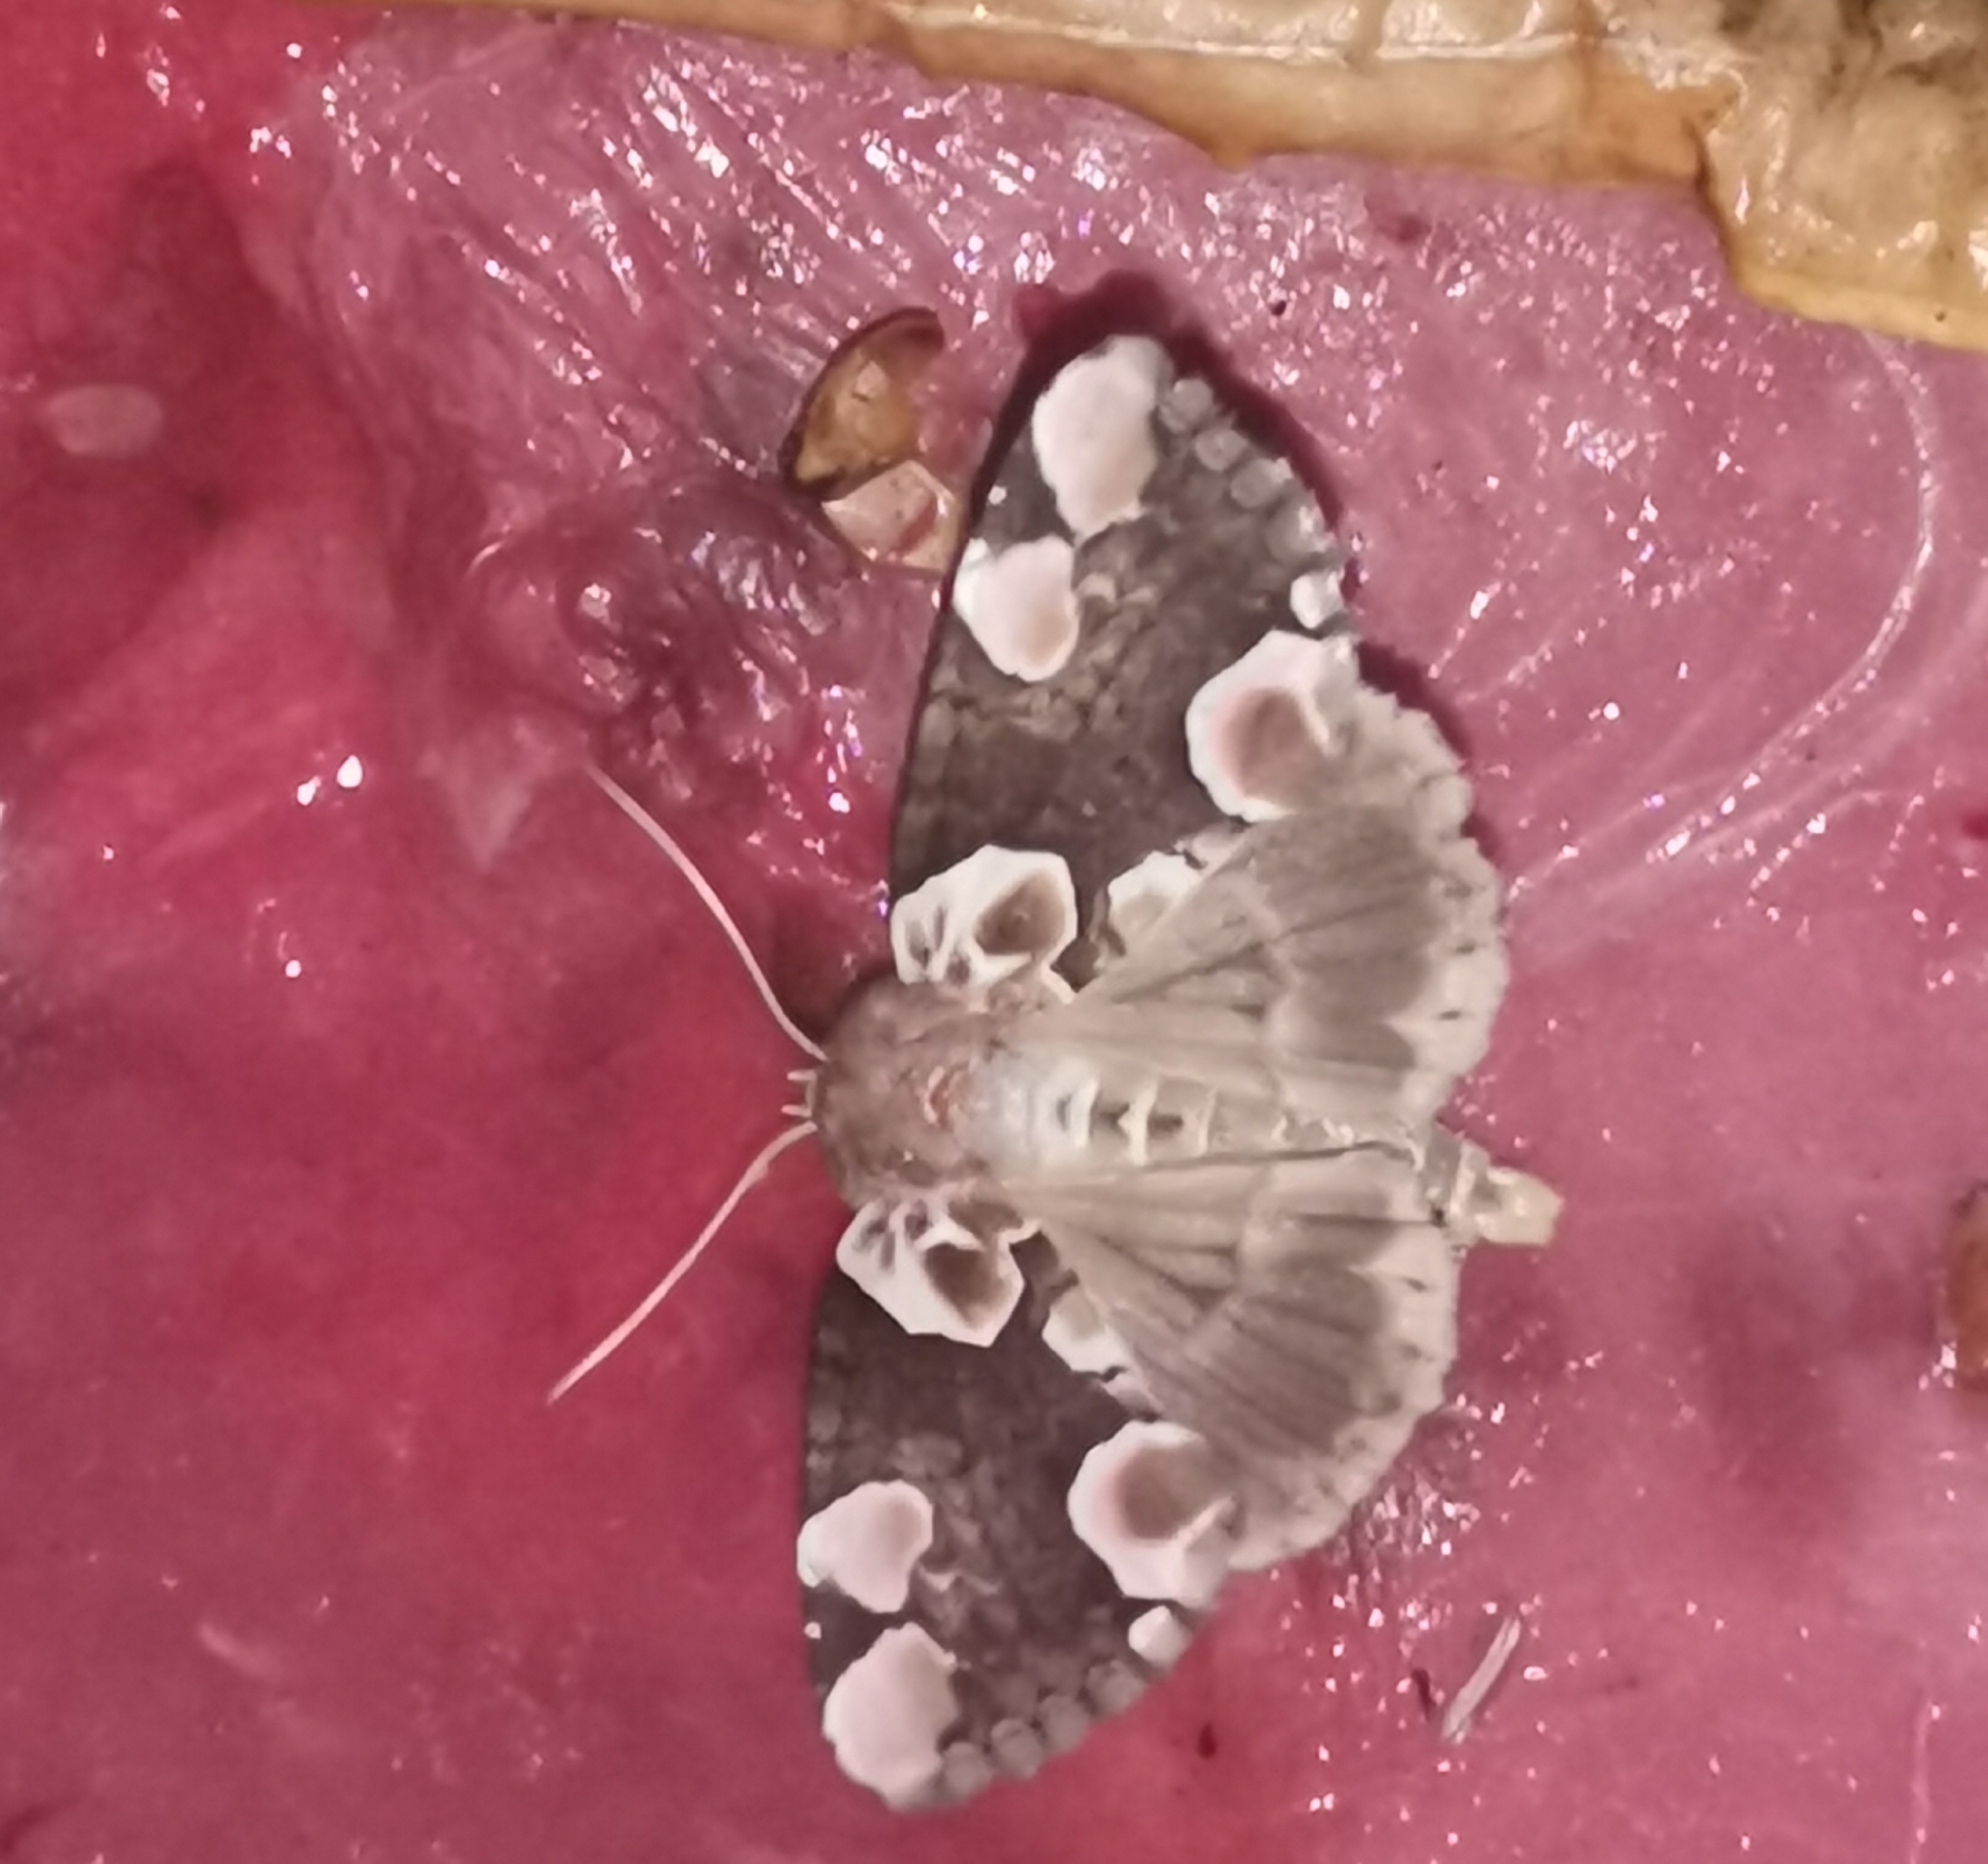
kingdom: Animalia
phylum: Arthropoda
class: Insecta
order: Lepidoptera
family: Drepanidae
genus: Thyatira
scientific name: Thyatira batis
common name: Peach blossom
